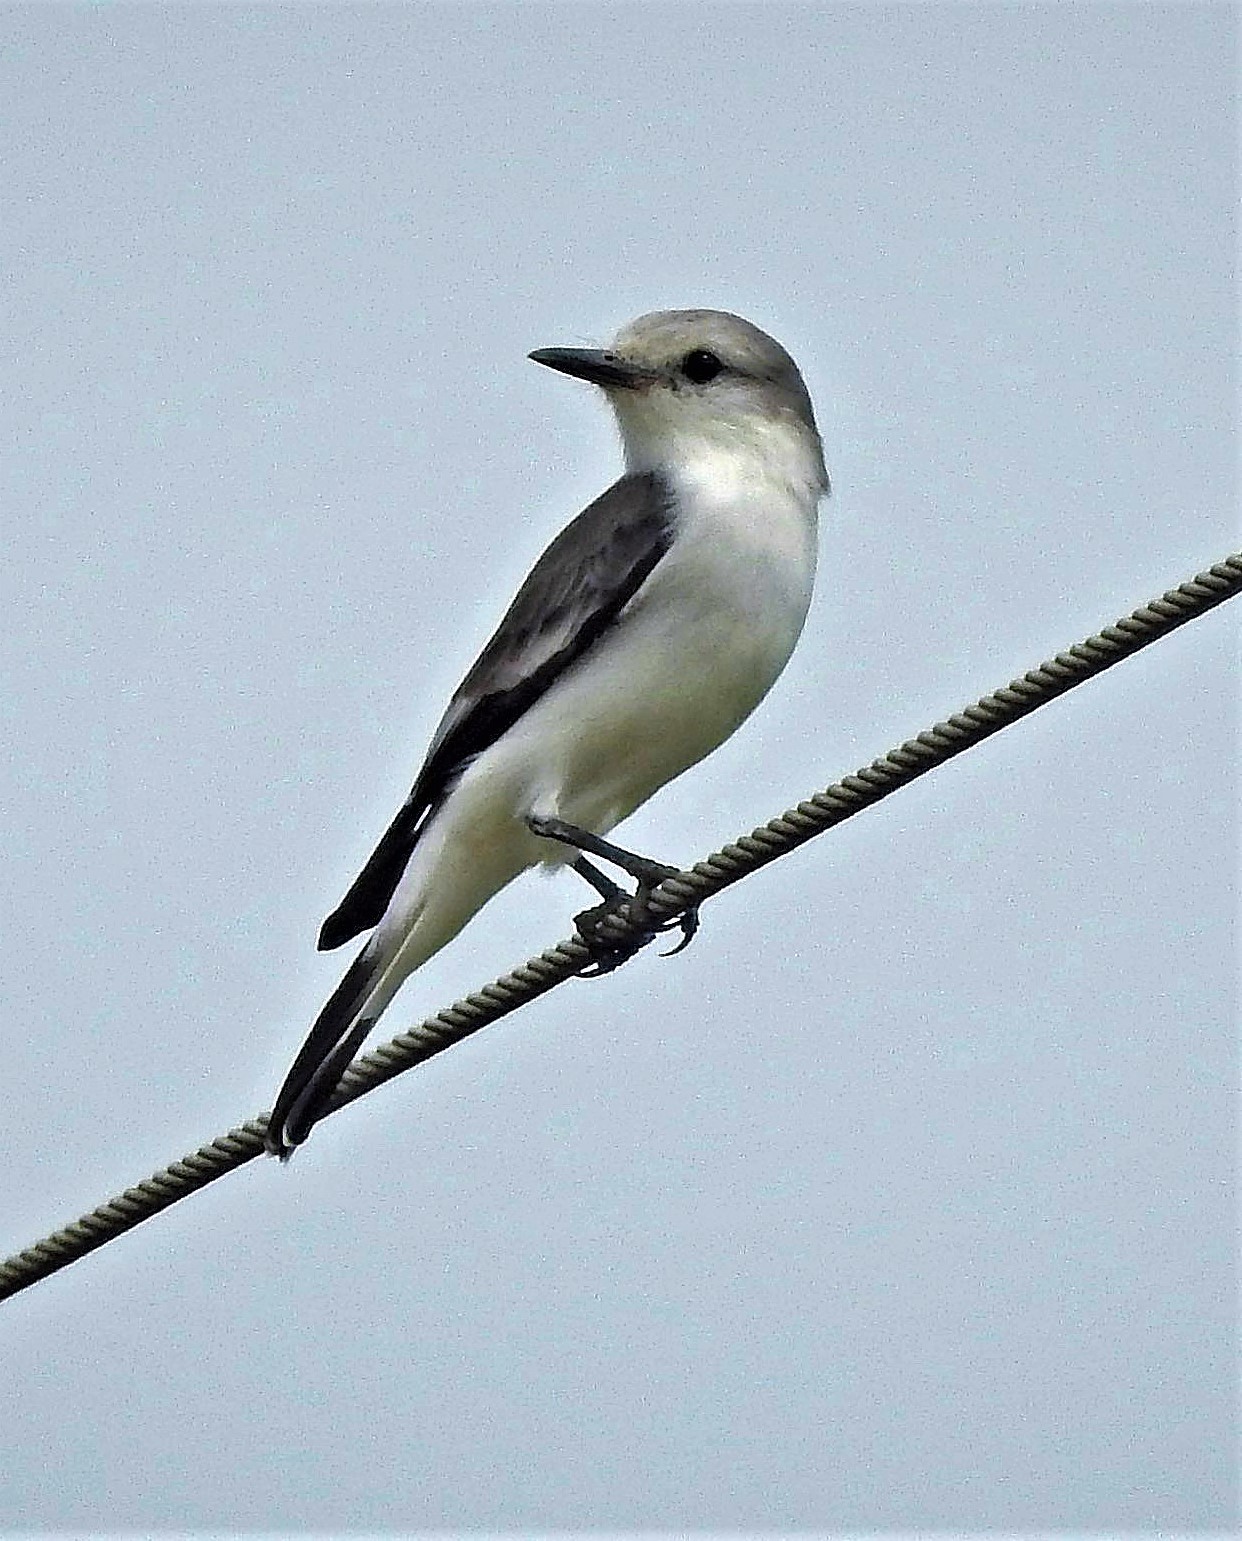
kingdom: Animalia
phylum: Chordata
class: Aves
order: Passeriformes
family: Tyrannidae
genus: Xolmis
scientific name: Xolmis velatus
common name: White-rumped monjita
